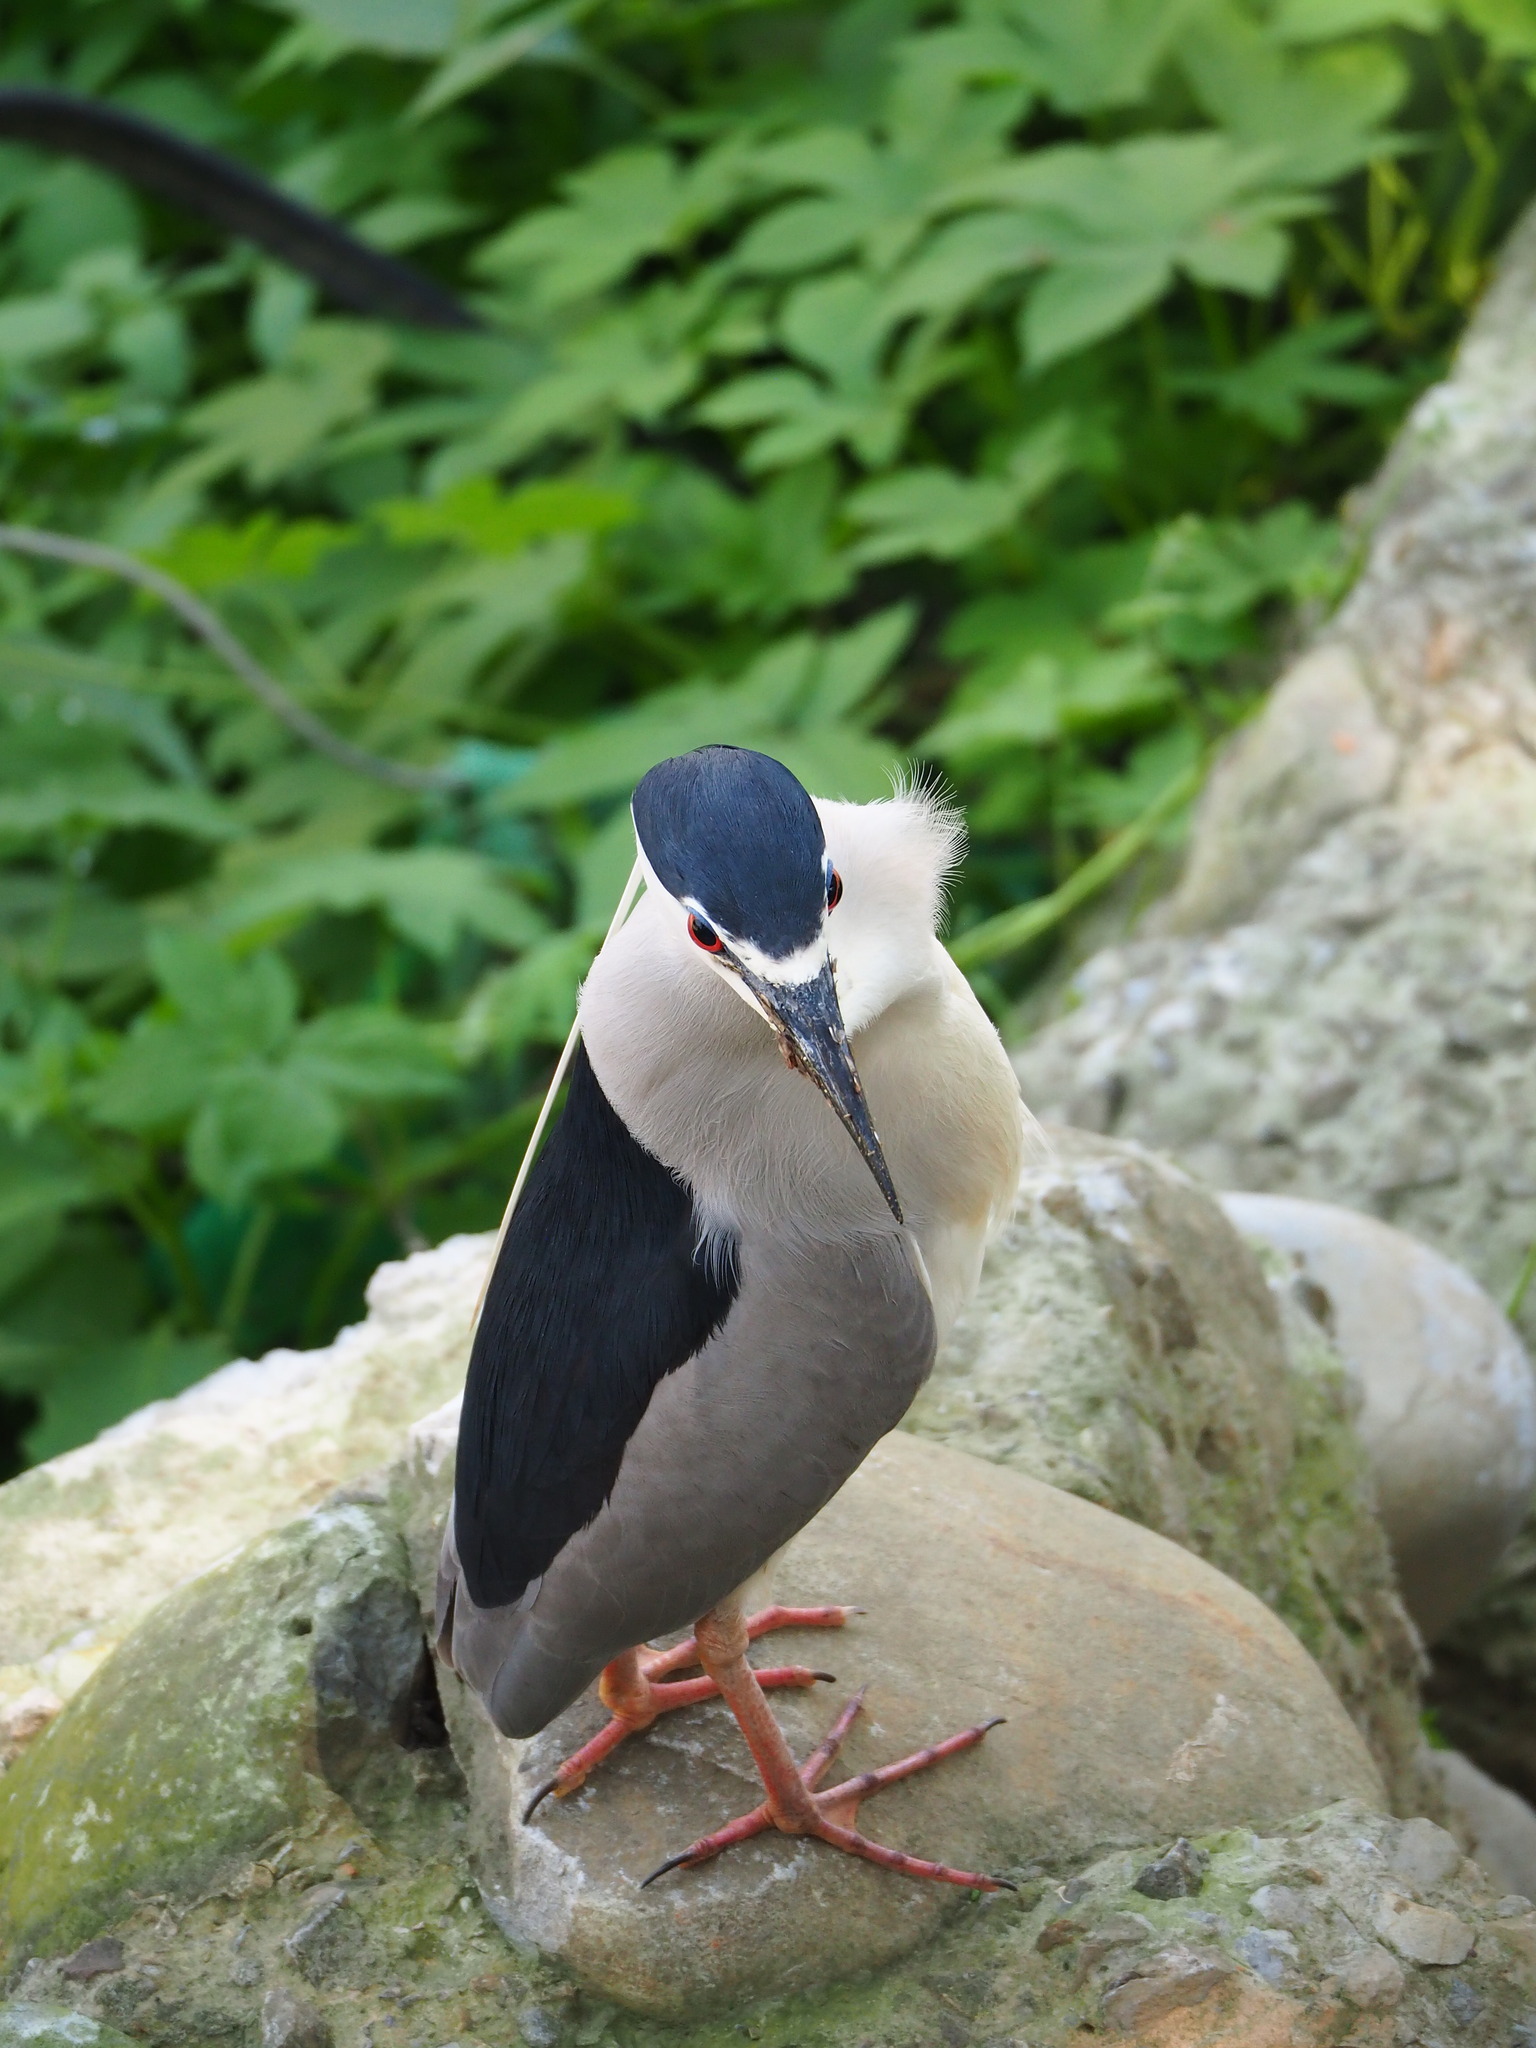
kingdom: Animalia
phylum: Chordata
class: Aves
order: Pelecaniformes
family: Ardeidae
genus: Nycticorax
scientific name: Nycticorax nycticorax
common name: Black-crowned night heron
